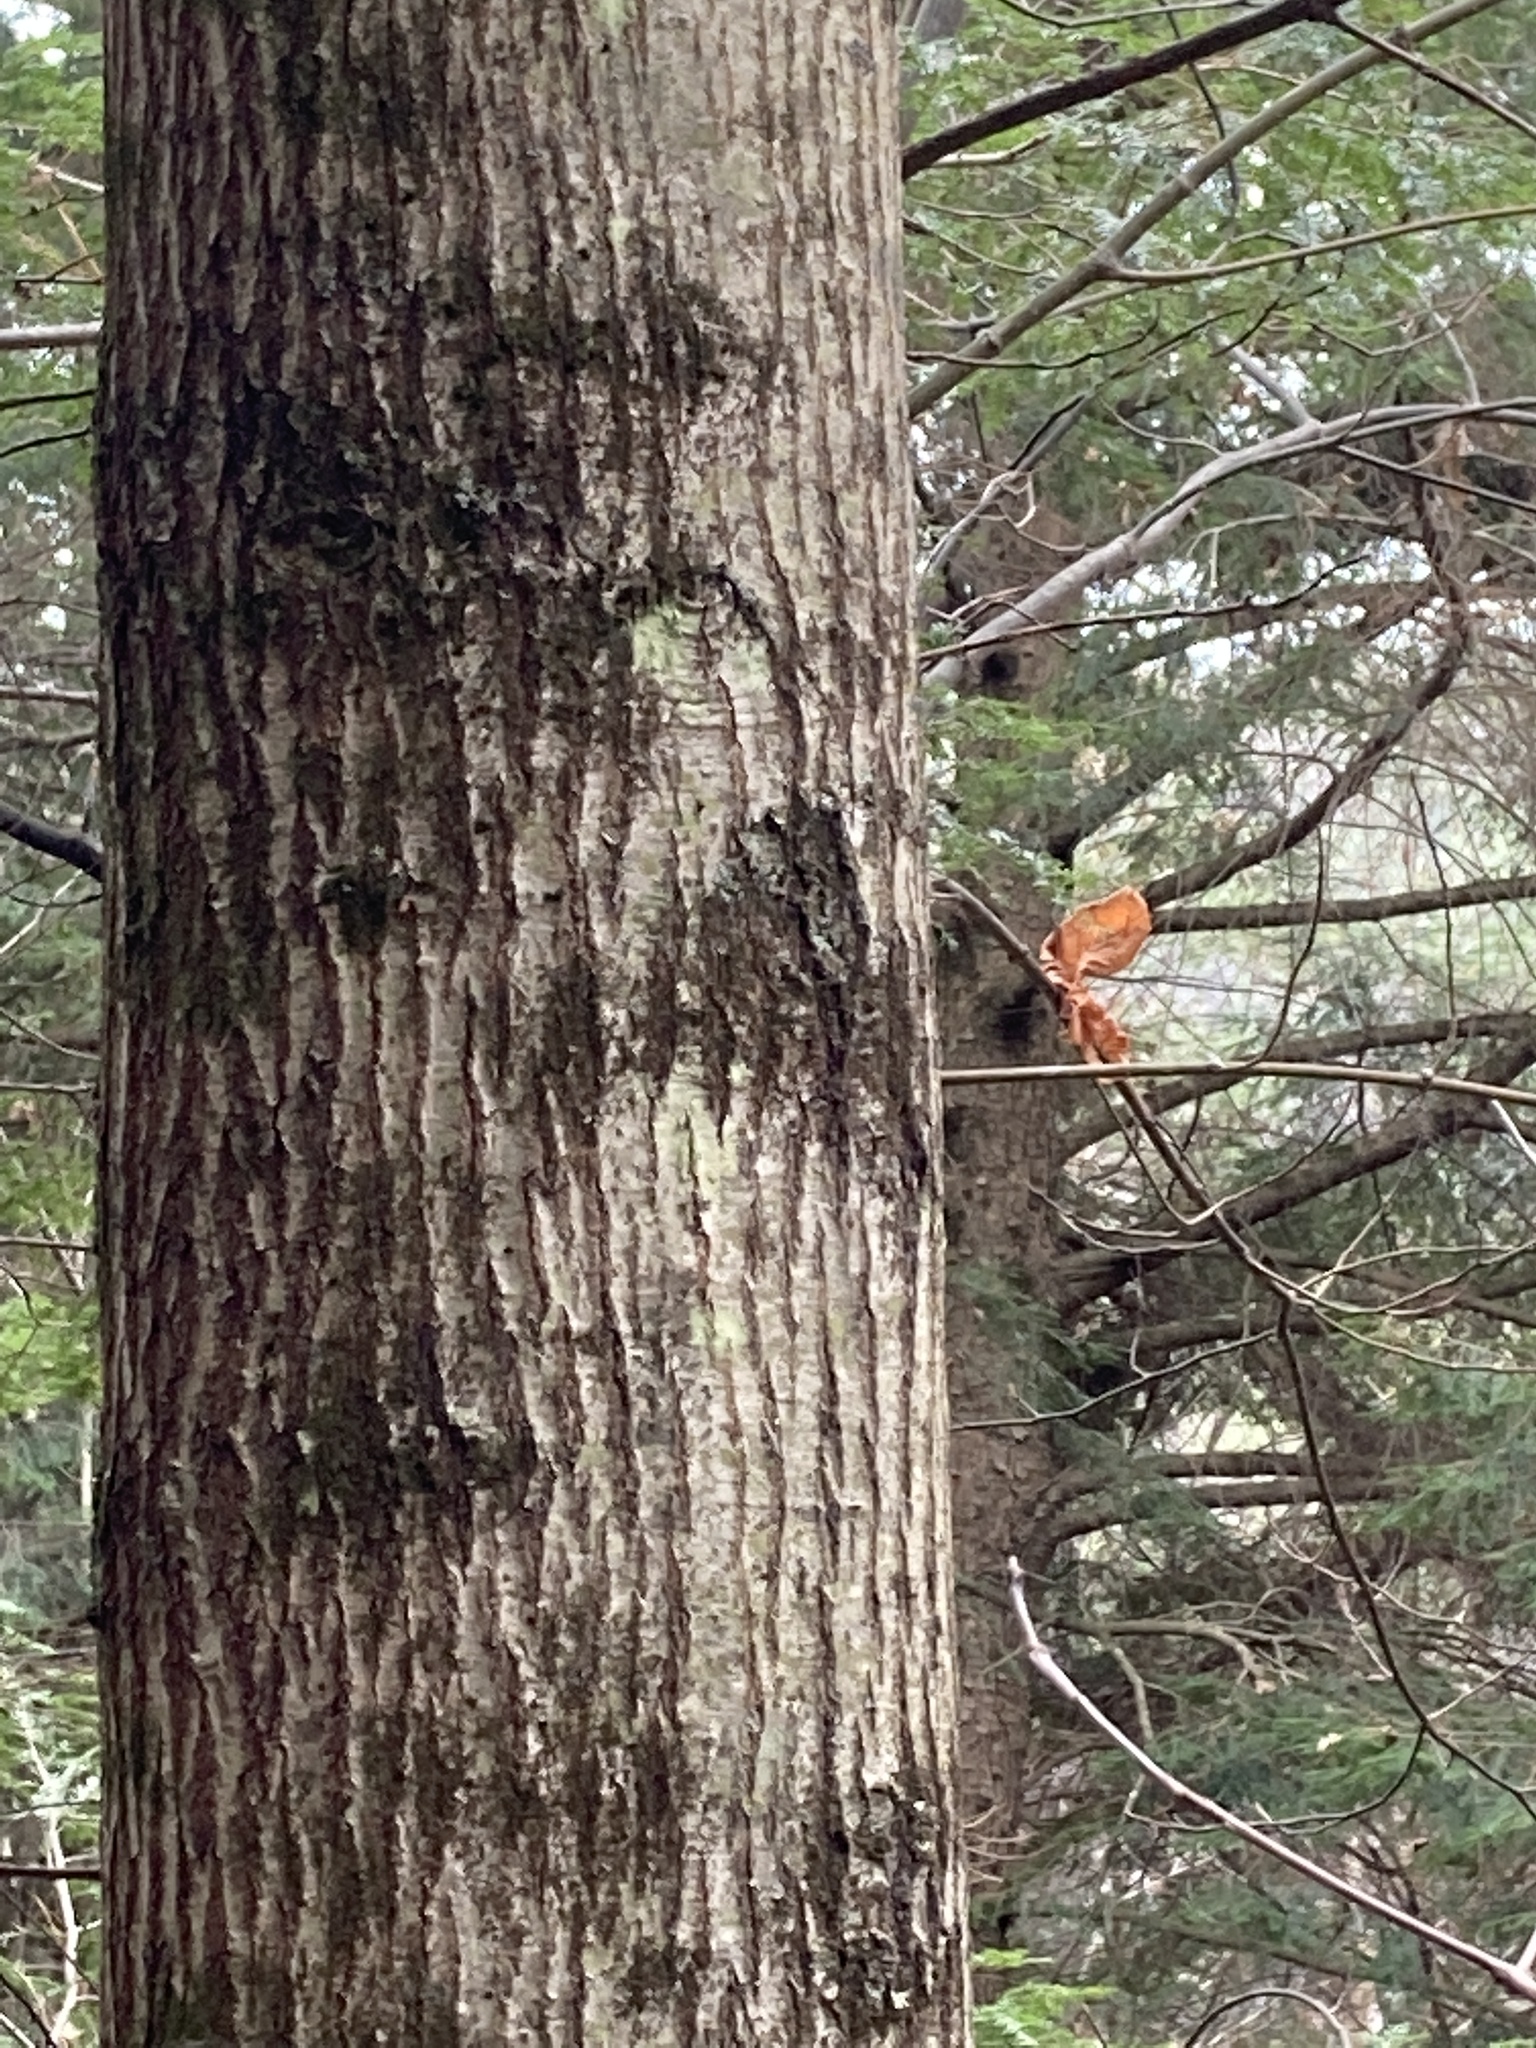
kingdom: Plantae
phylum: Tracheophyta
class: Magnoliopsida
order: Fagales
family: Fagaceae
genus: Quercus
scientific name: Quercus rubra
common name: Red oak
